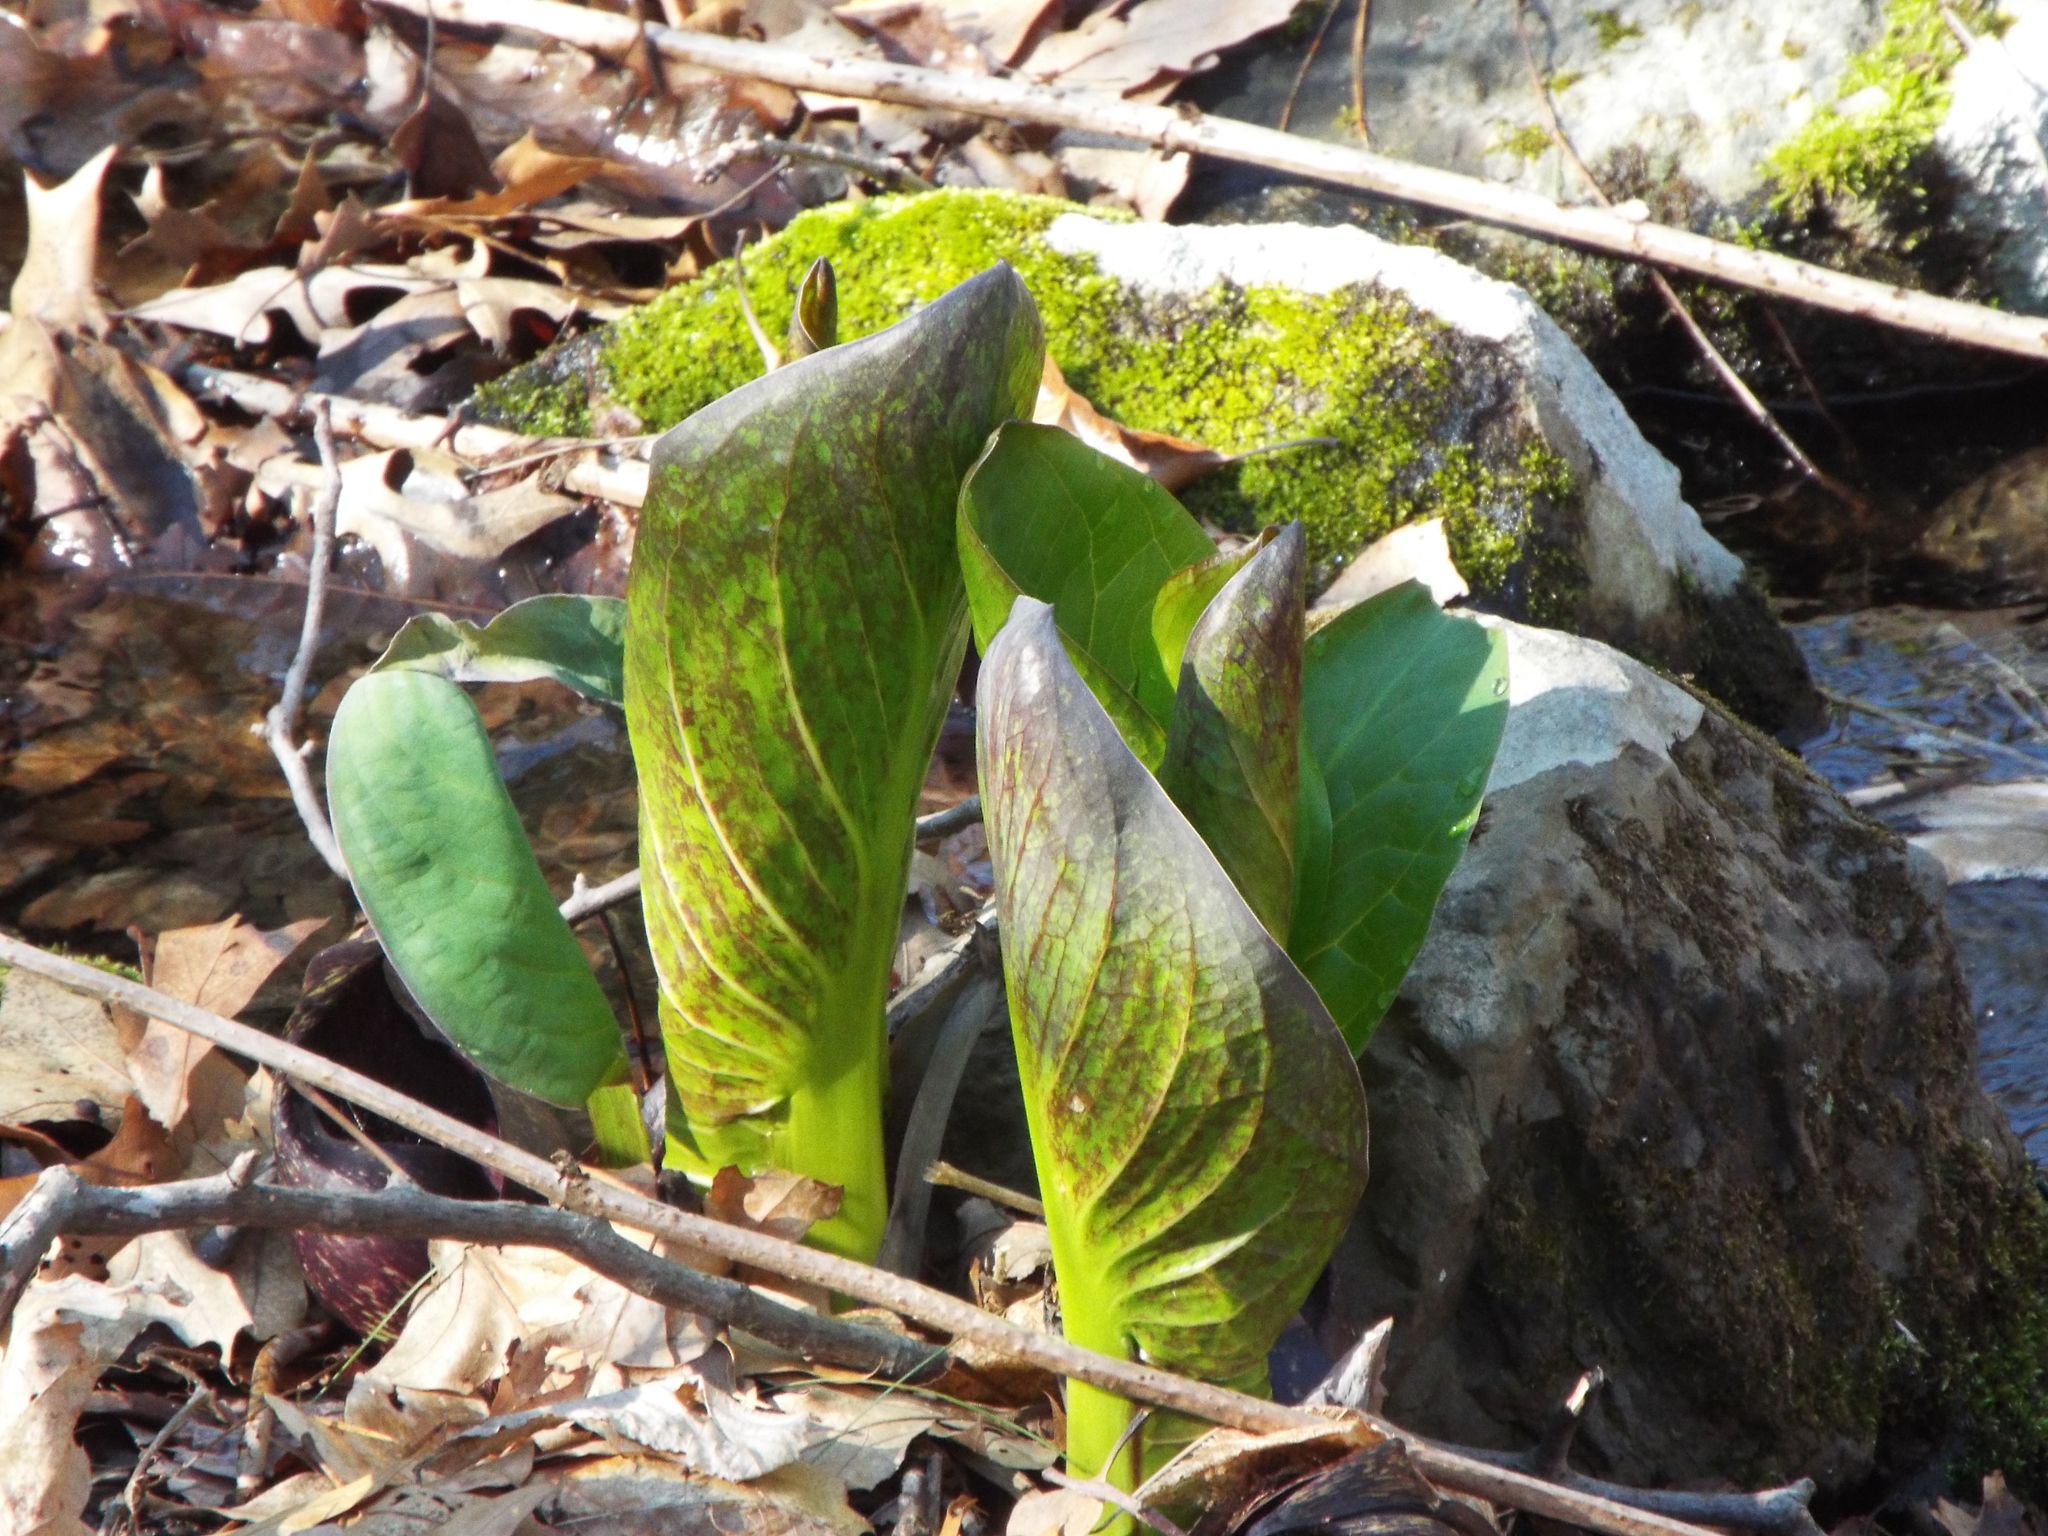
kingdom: Plantae
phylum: Tracheophyta
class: Liliopsida
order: Alismatales
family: Araceae
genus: Symplocarpus
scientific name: Symplocarpus foetidus
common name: Eastern skunk cabbage
